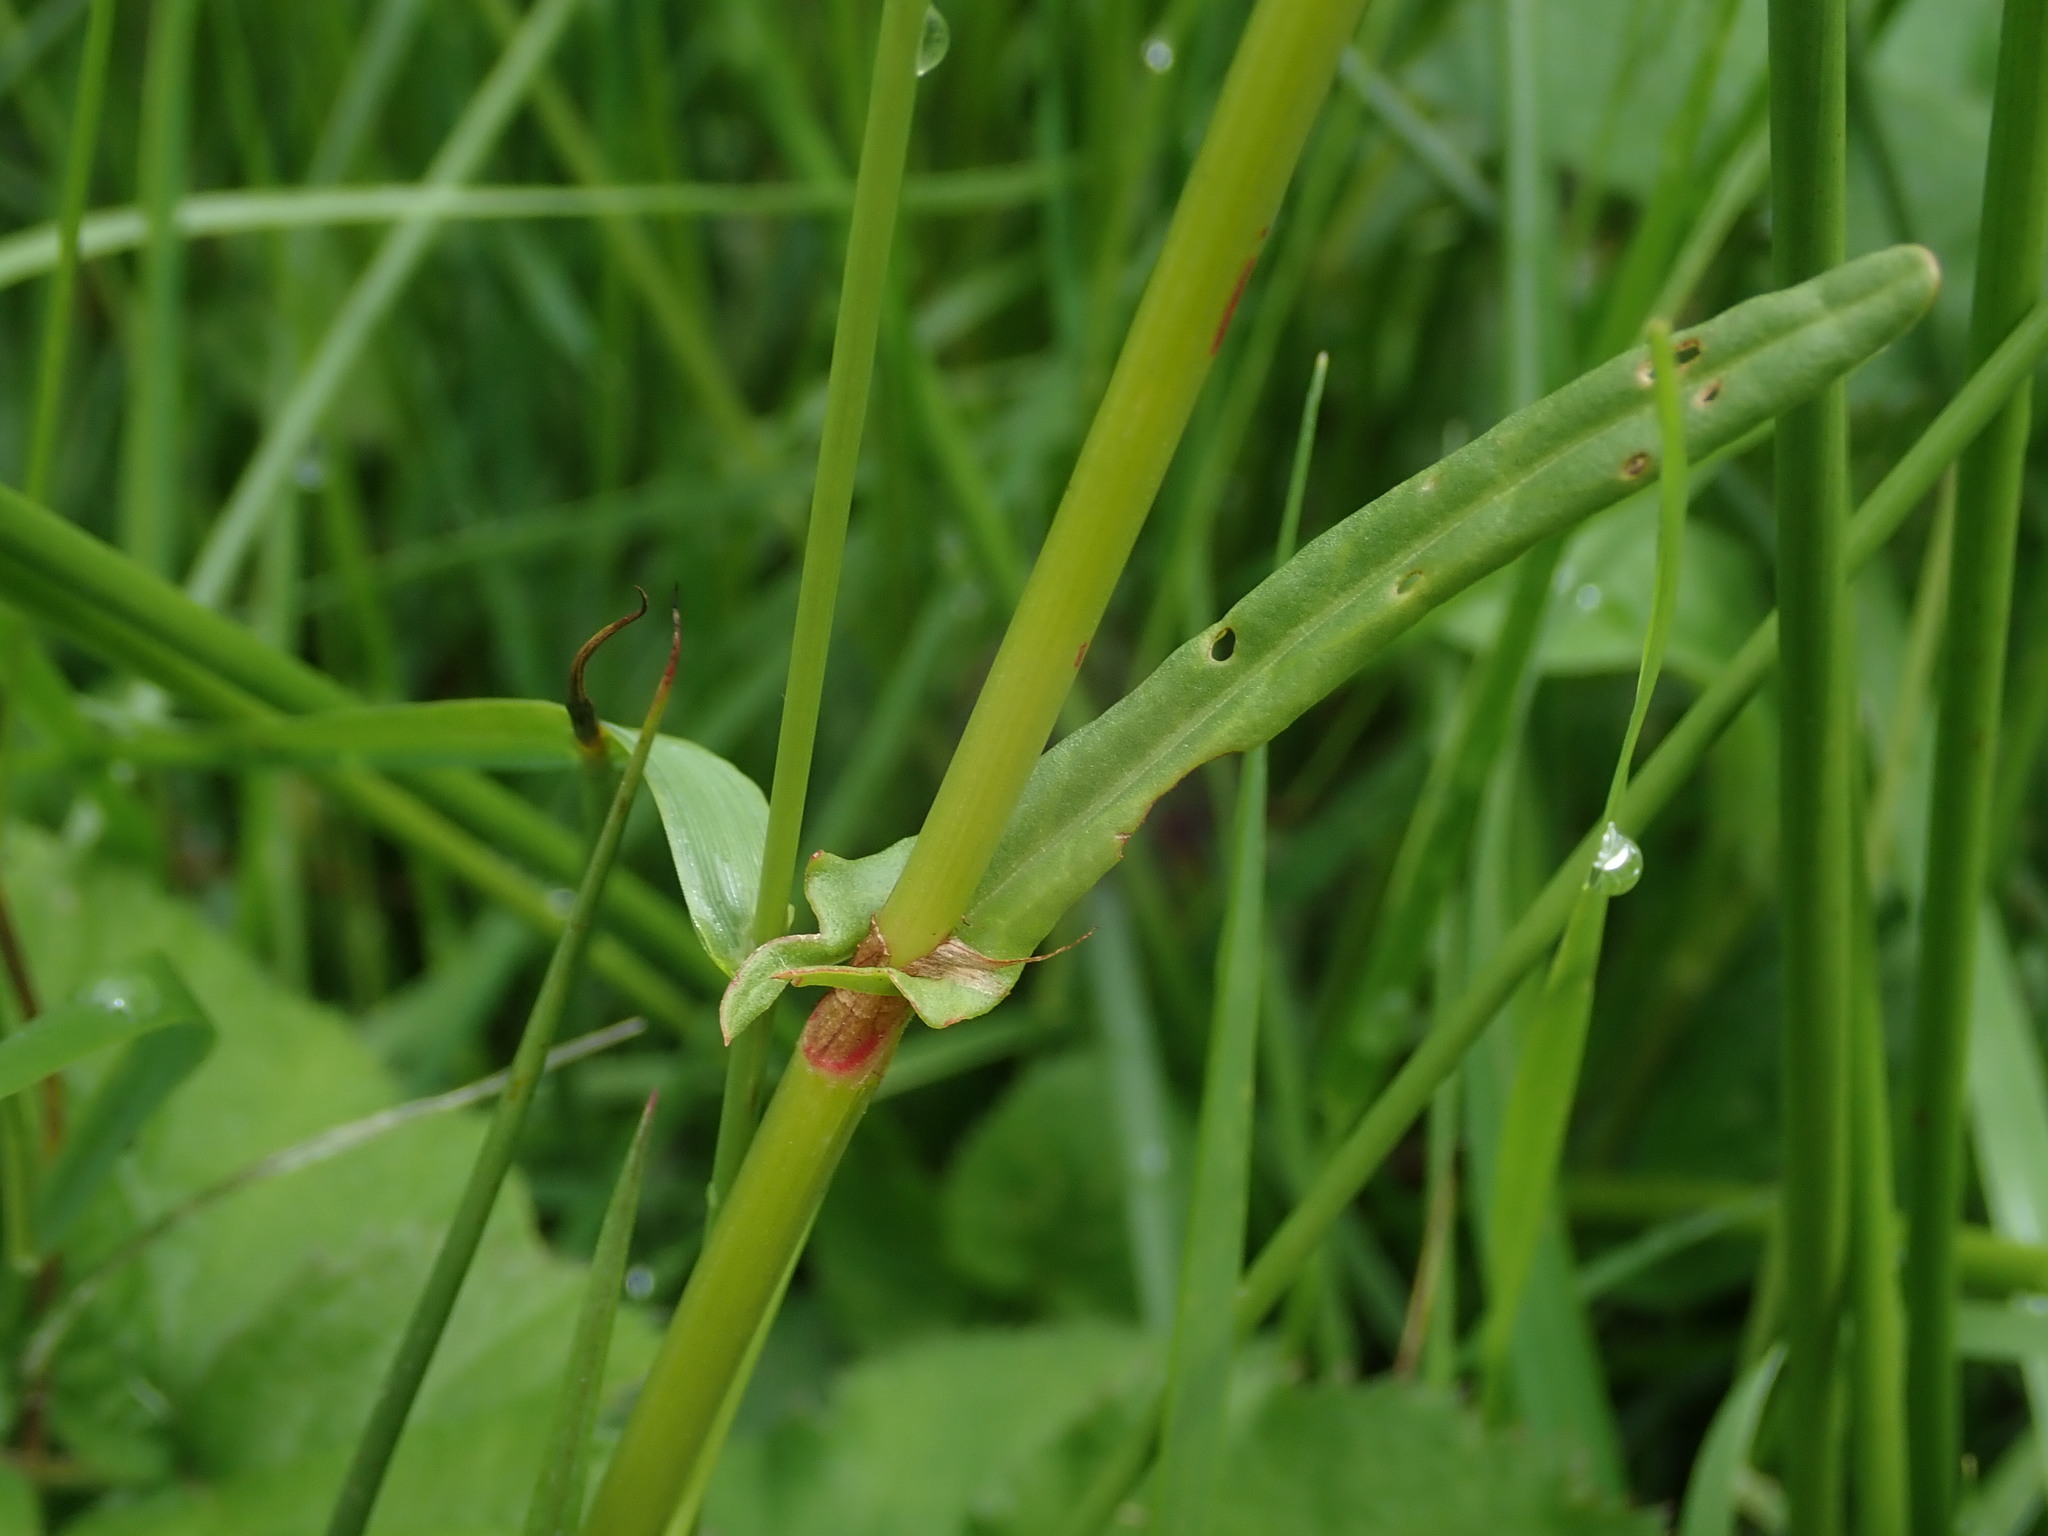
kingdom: Plantae
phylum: Tracheophyta
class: Magnoliopsida
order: Caryophyllales
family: Polygonaceae
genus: Rumex
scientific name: Rumex acetosa
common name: Garden sorrel
